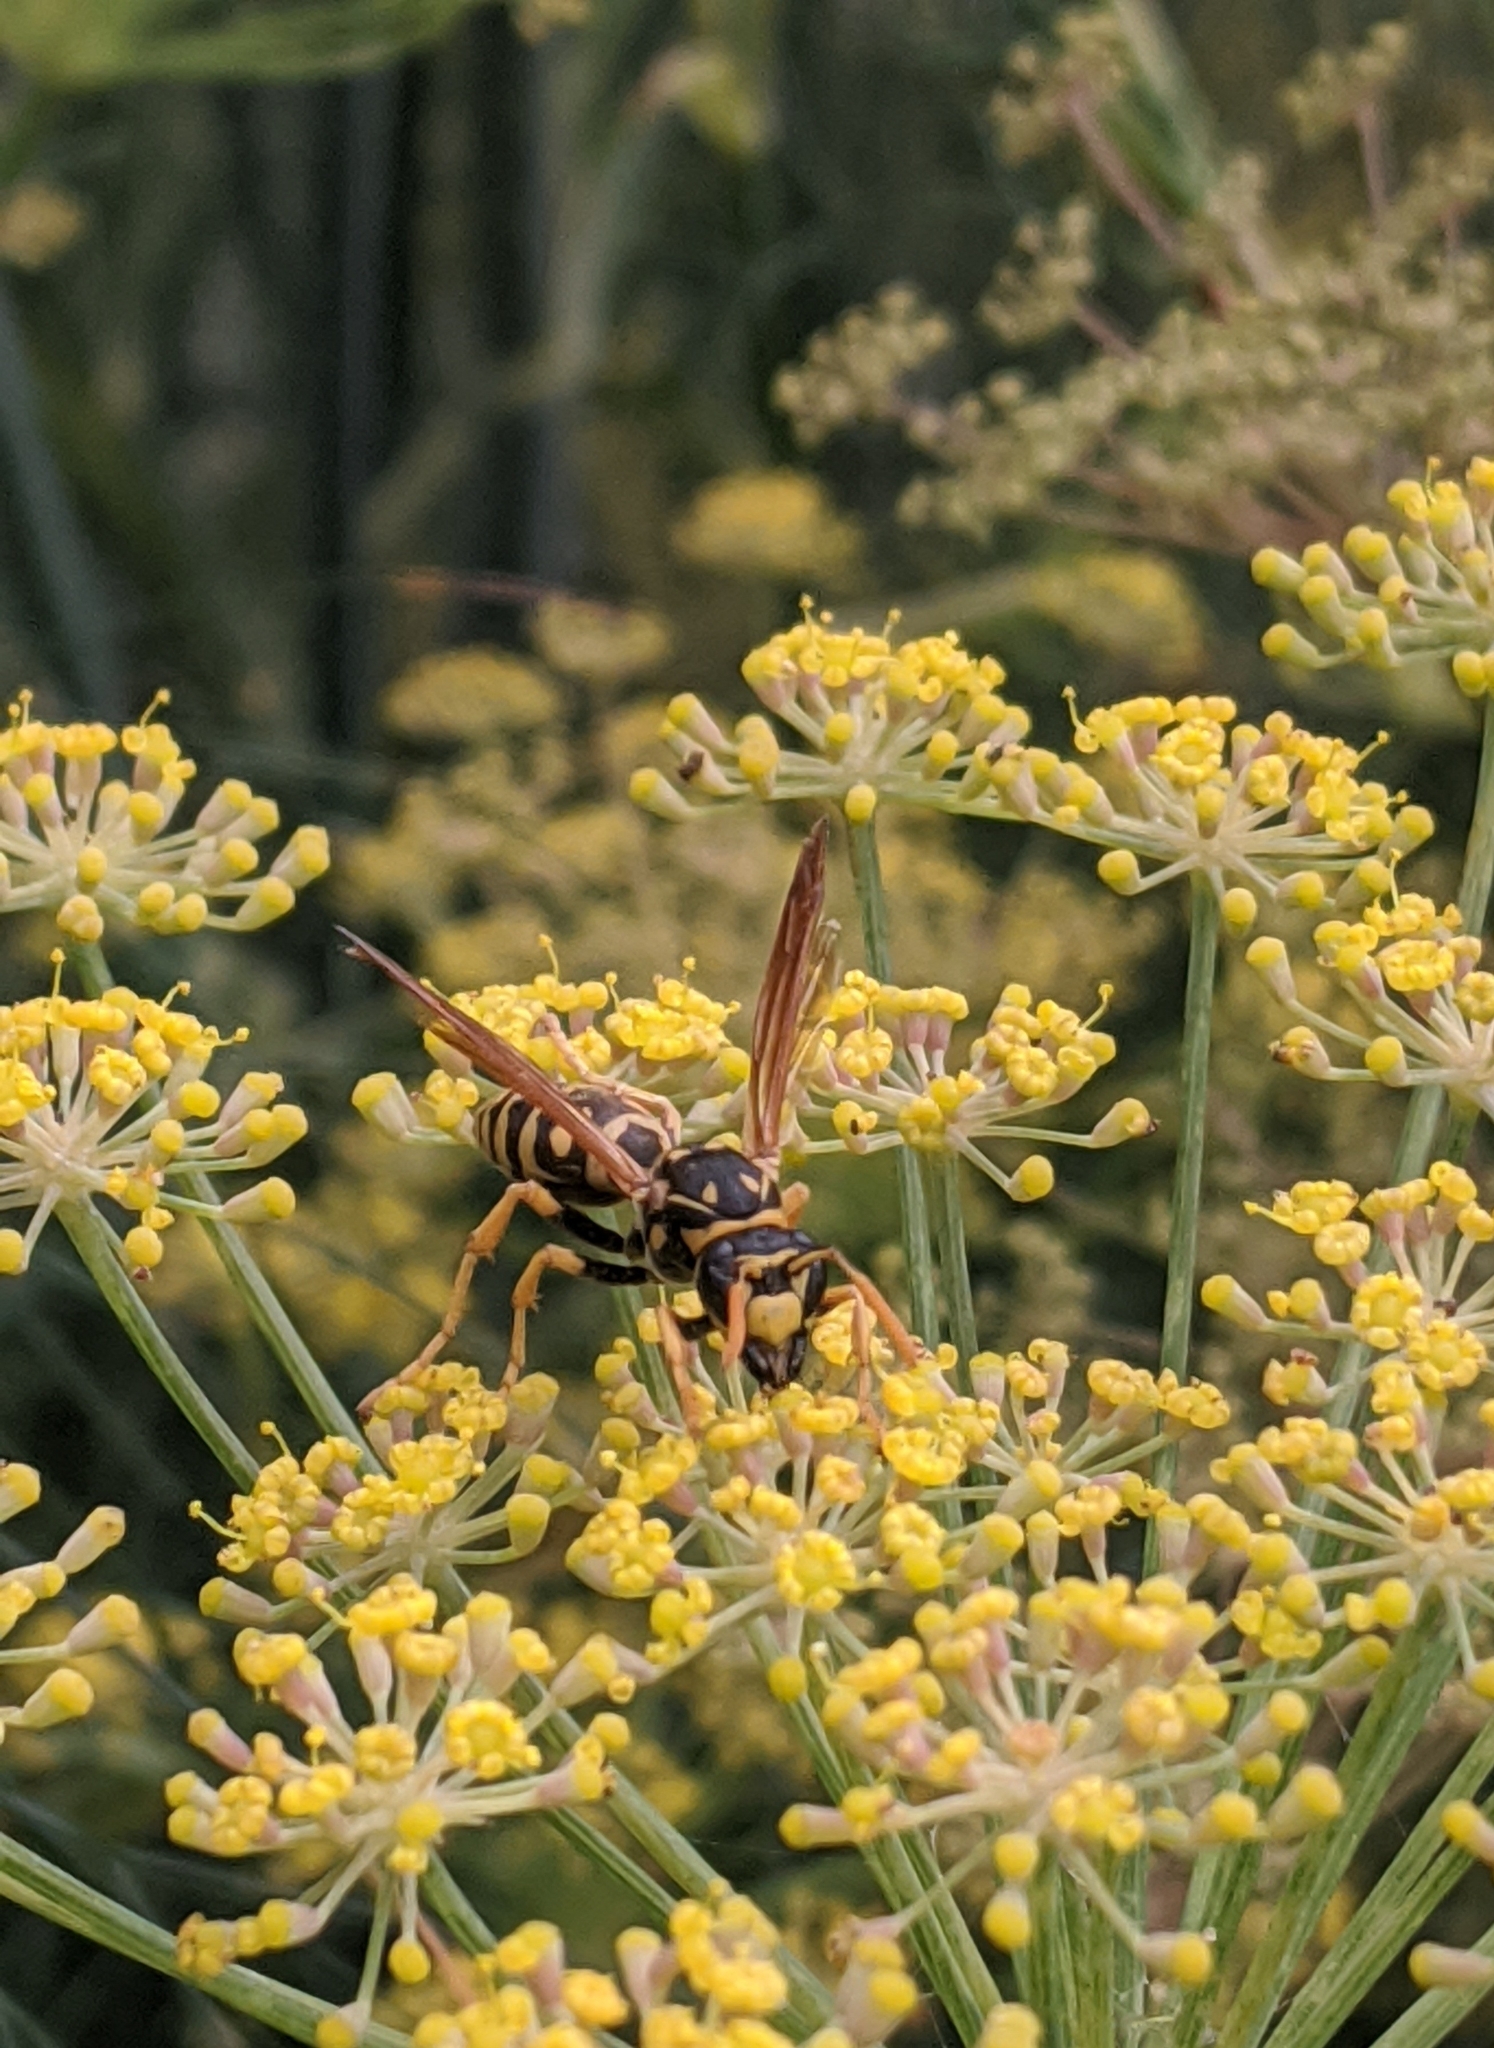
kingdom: Animalia
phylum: Arthropoda
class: Insecta
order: Hymenoptera
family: Eumenidae
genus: Polistes
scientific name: Polistes dominula
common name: Paper wasp
